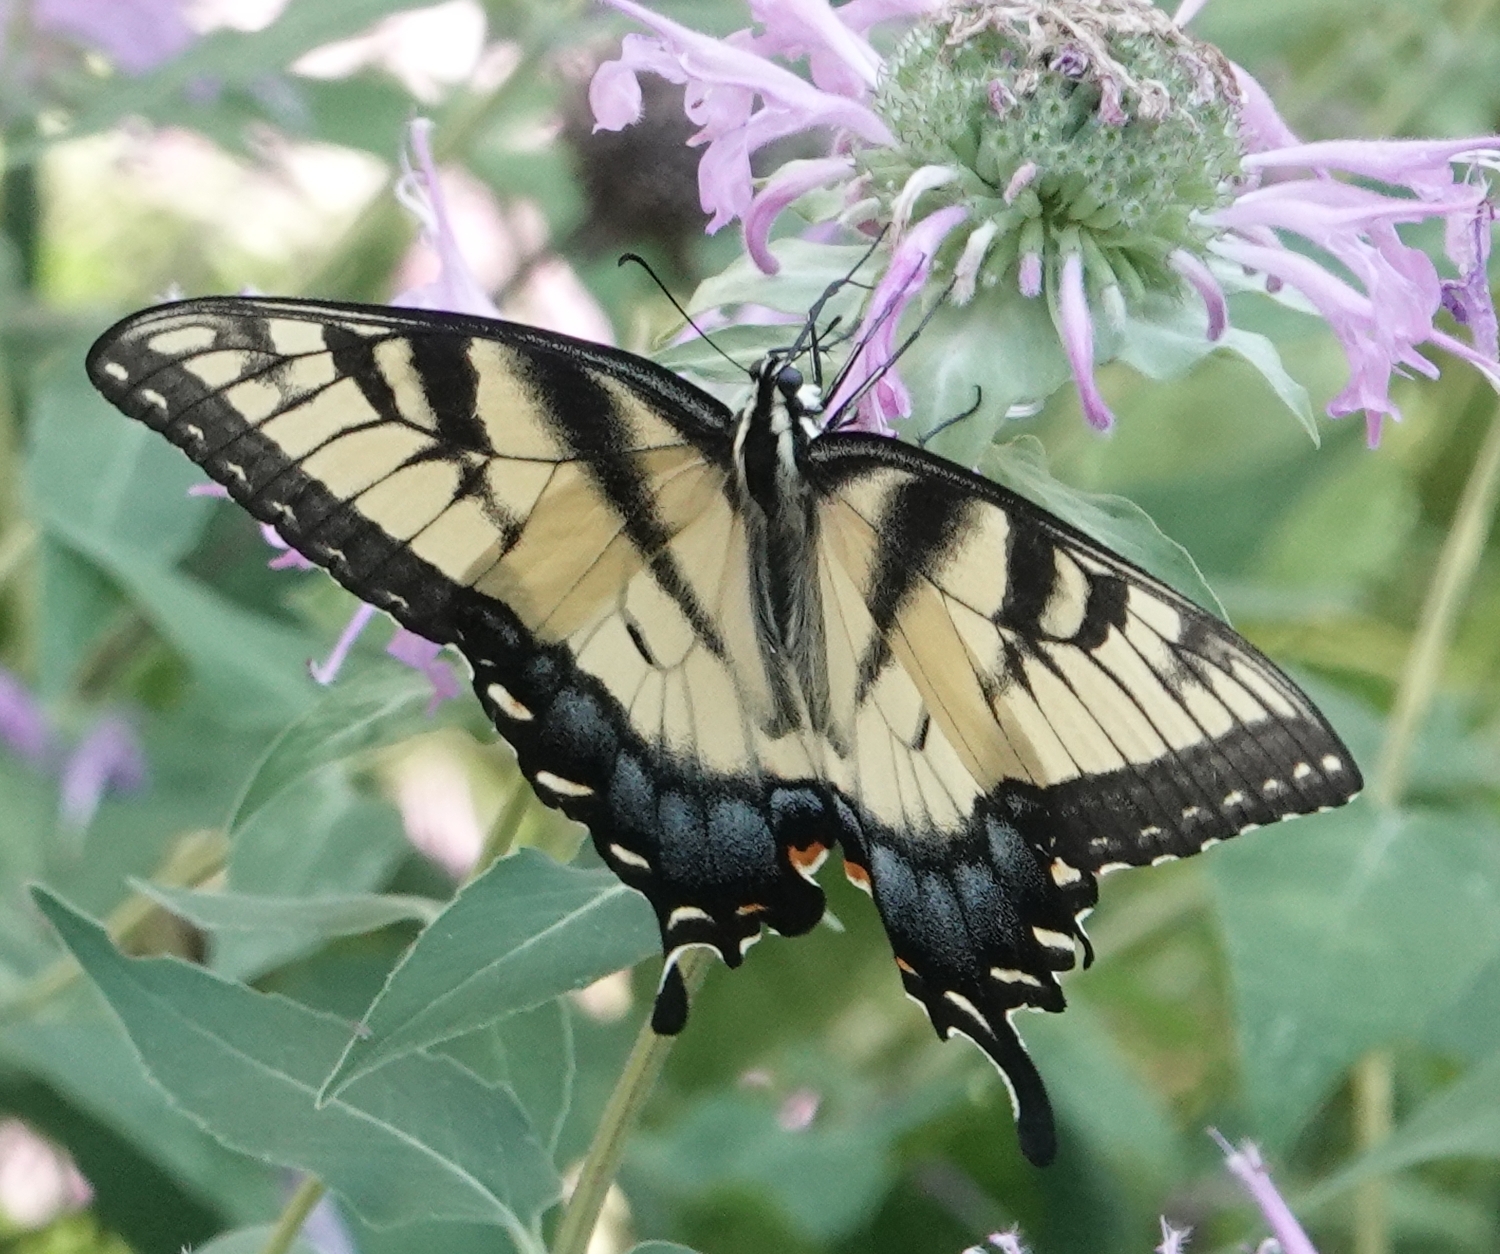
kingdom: Animalia
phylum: Arthropoda
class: Insecta
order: Lepidoptera
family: Papilionidae
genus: Papilio
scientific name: Papilio glaucus
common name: Tiger swallowtail
